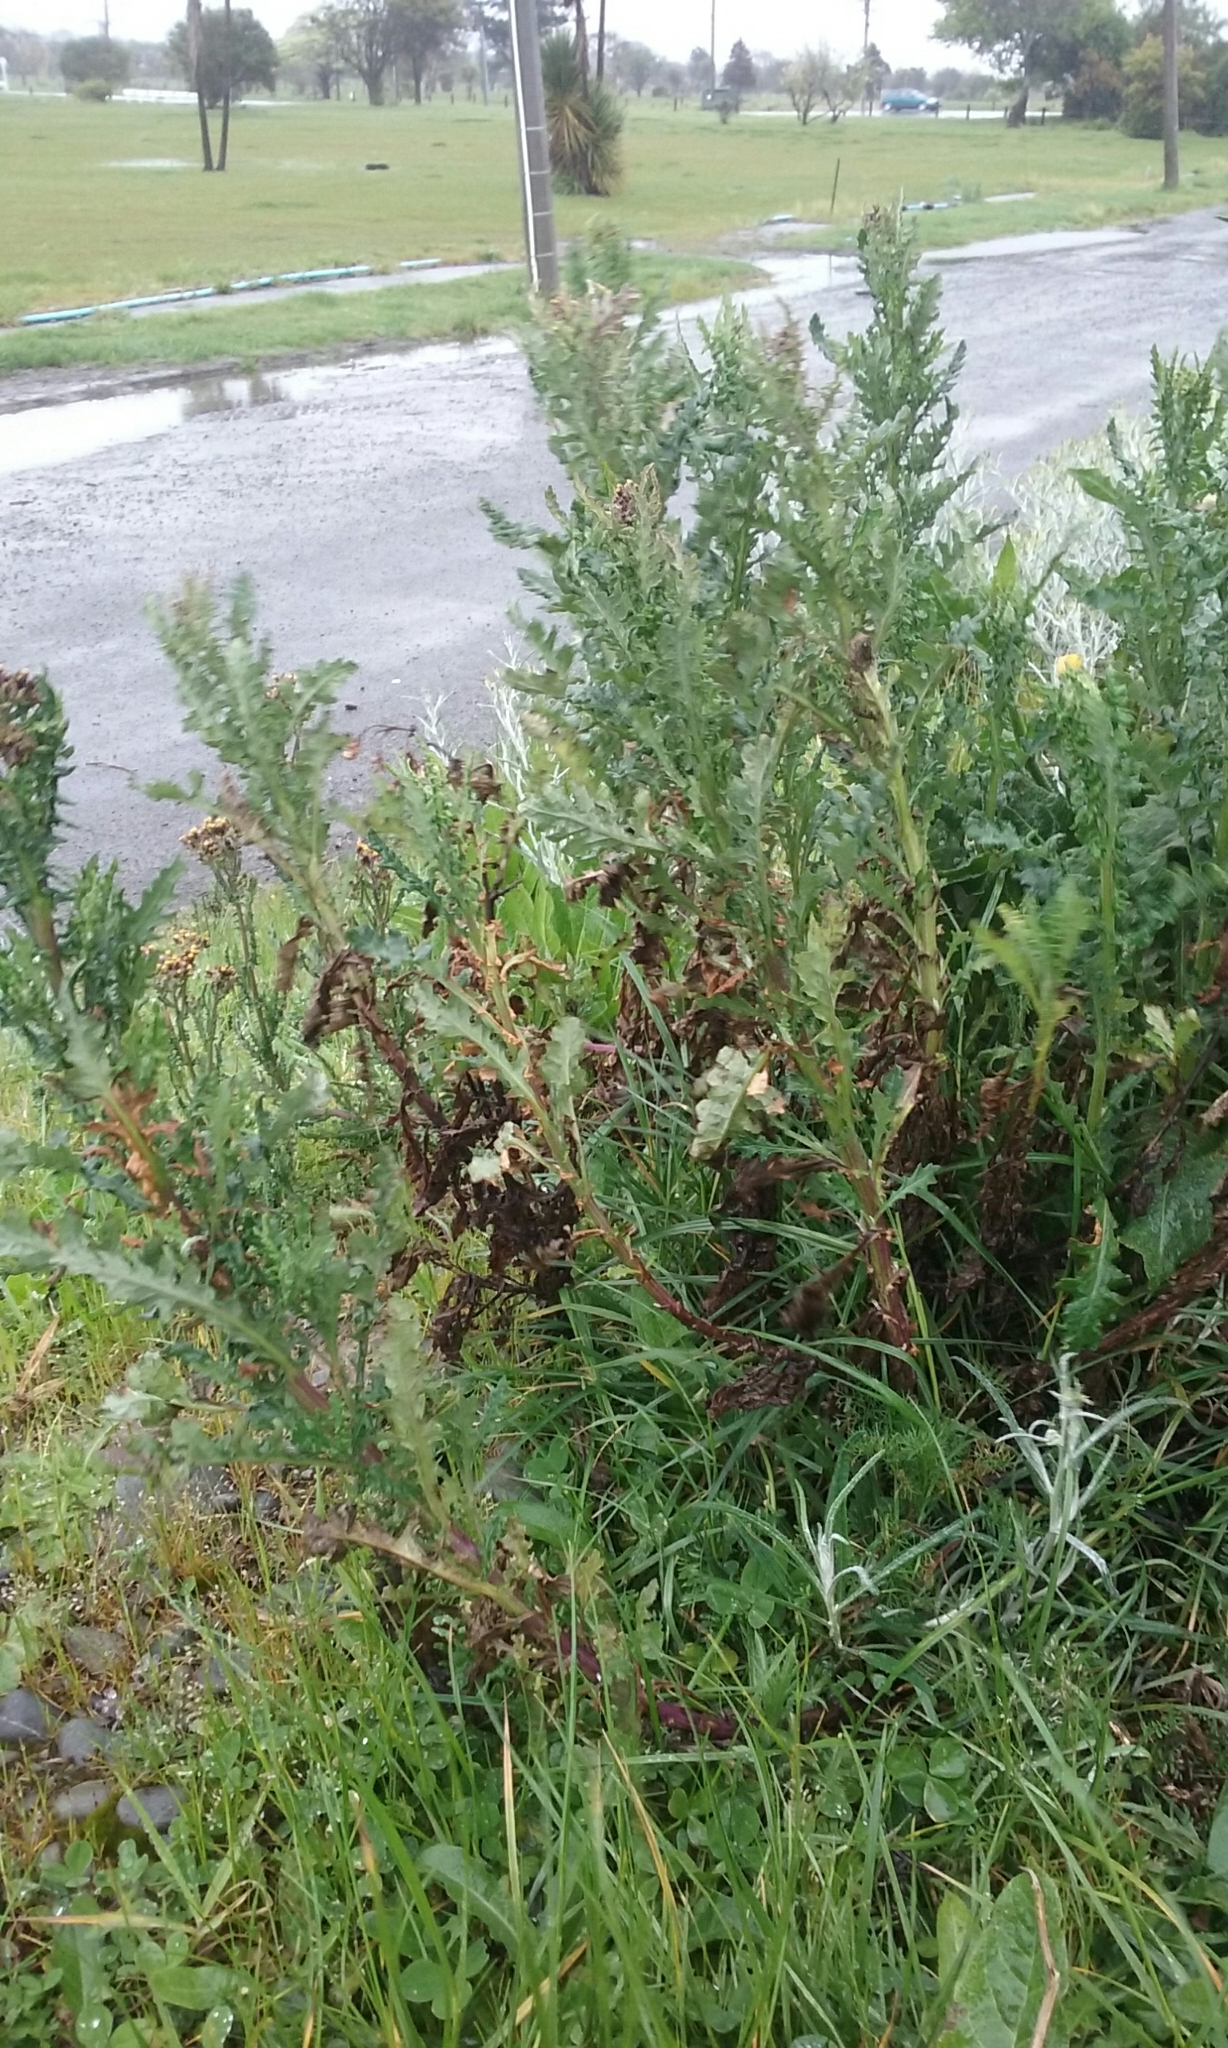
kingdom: Plantae
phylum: Tracheophyta
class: Magnoliopsida
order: Asterales
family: Asteraceae
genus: Senecio
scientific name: Senecio glomeratus
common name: Cutleaf burnweed
